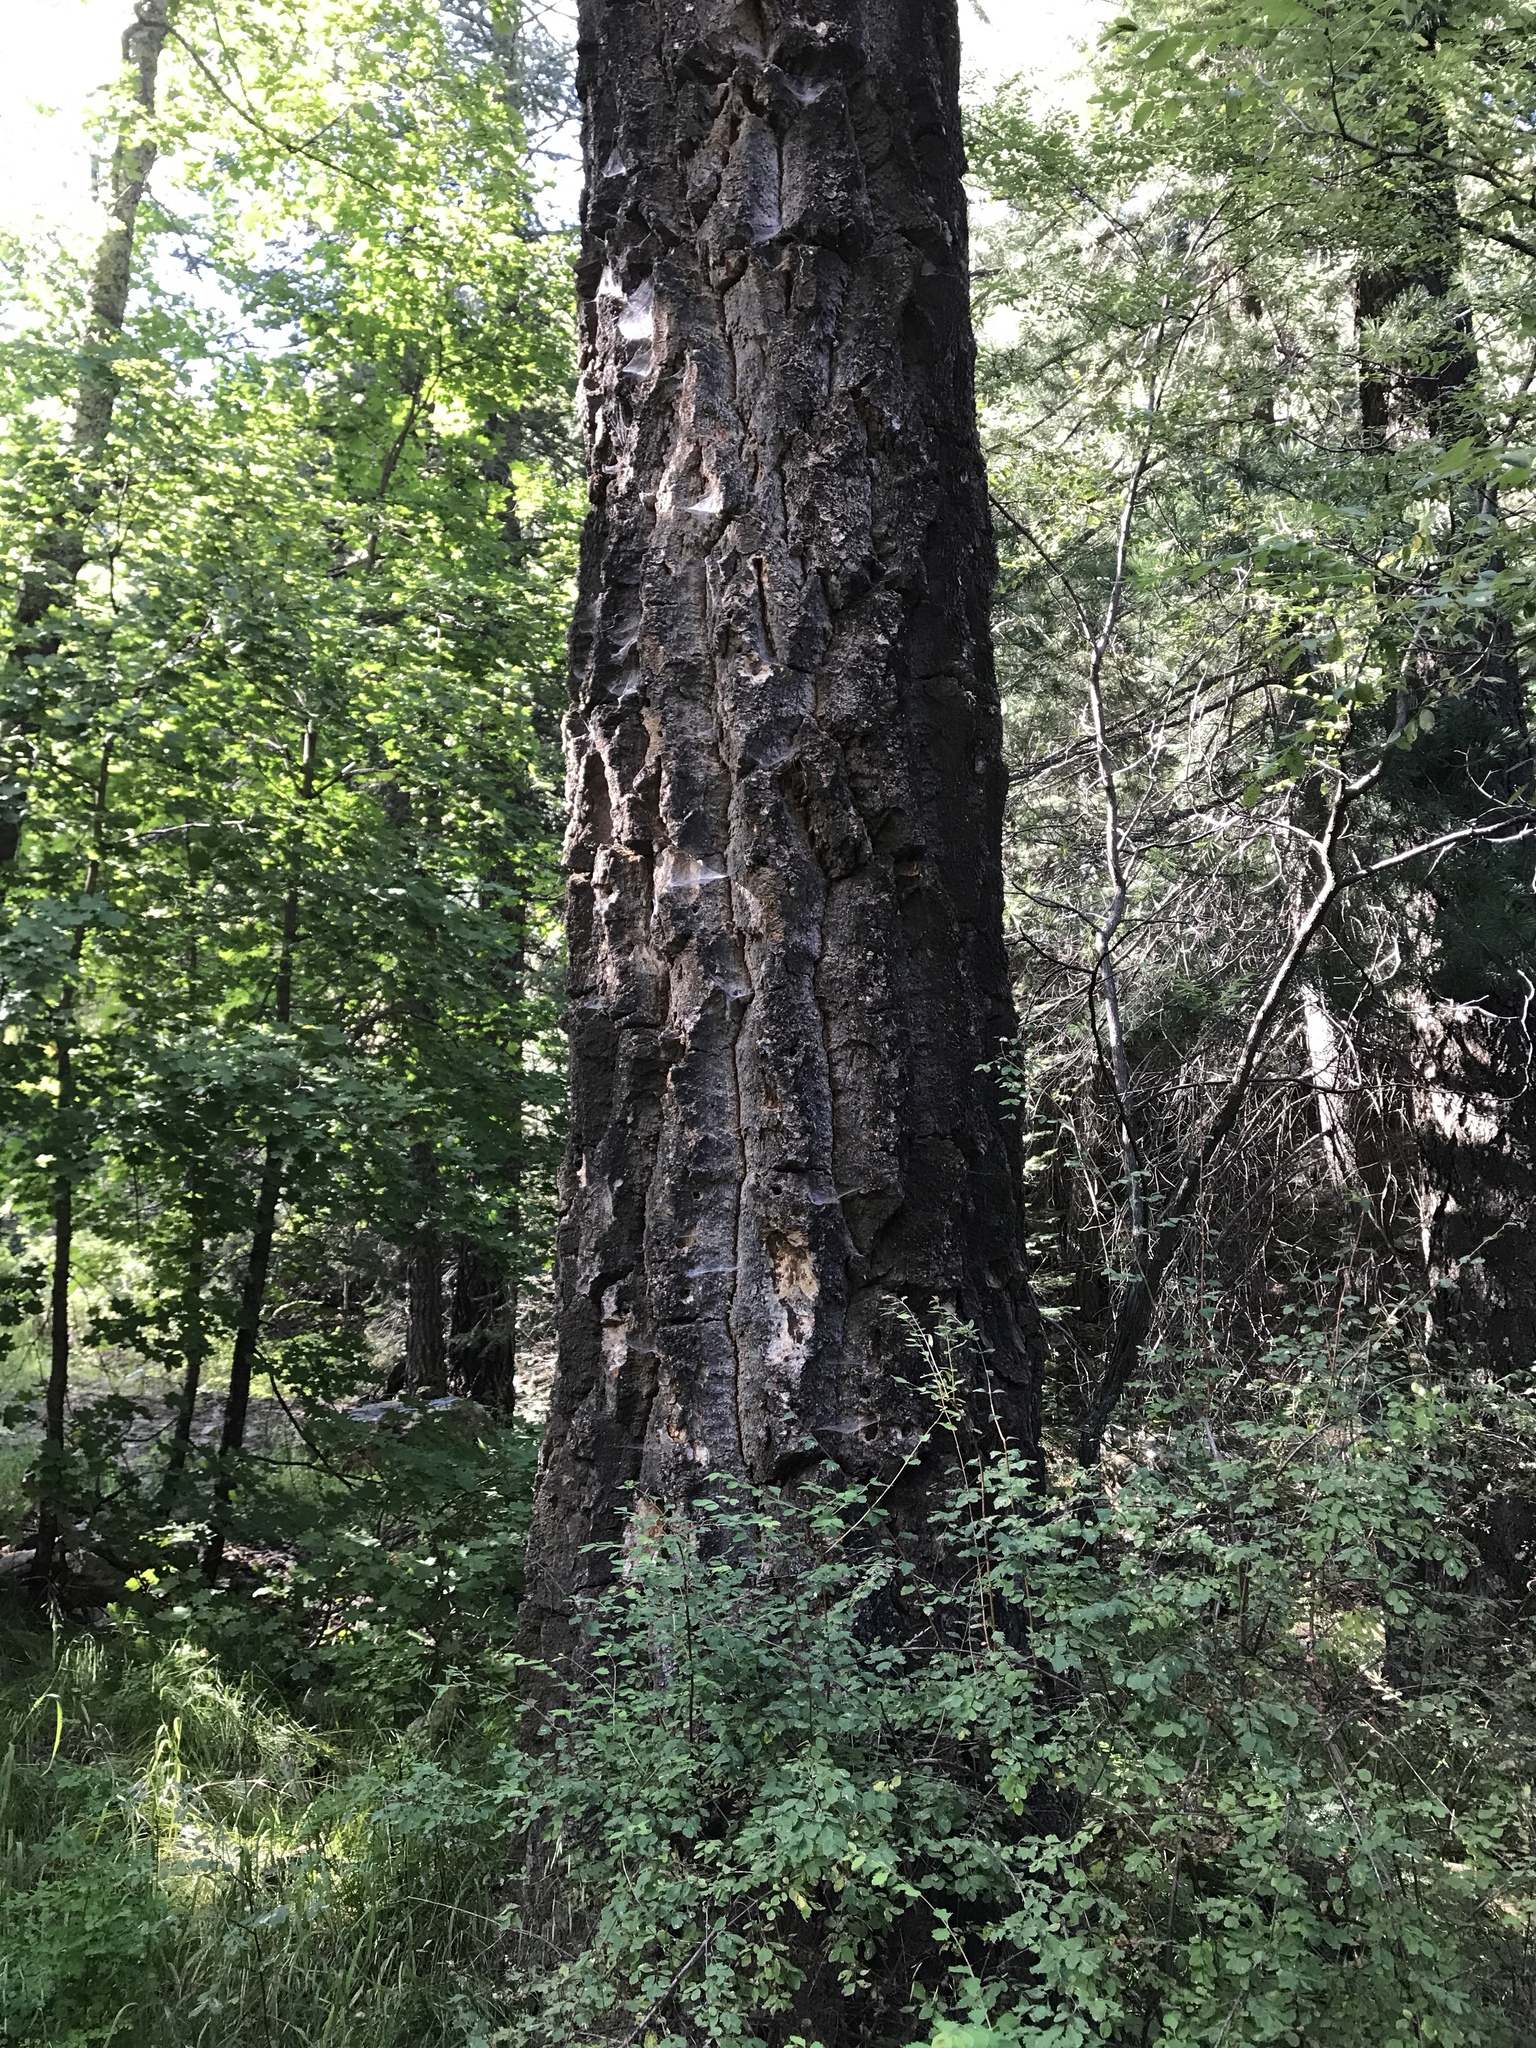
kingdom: Plantae
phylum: Tracheophyta
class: Pinopsida
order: Pinales
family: Pinaceae
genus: Pseudotsuga
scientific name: Pseudotsuga menziesii
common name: Douglas fir
